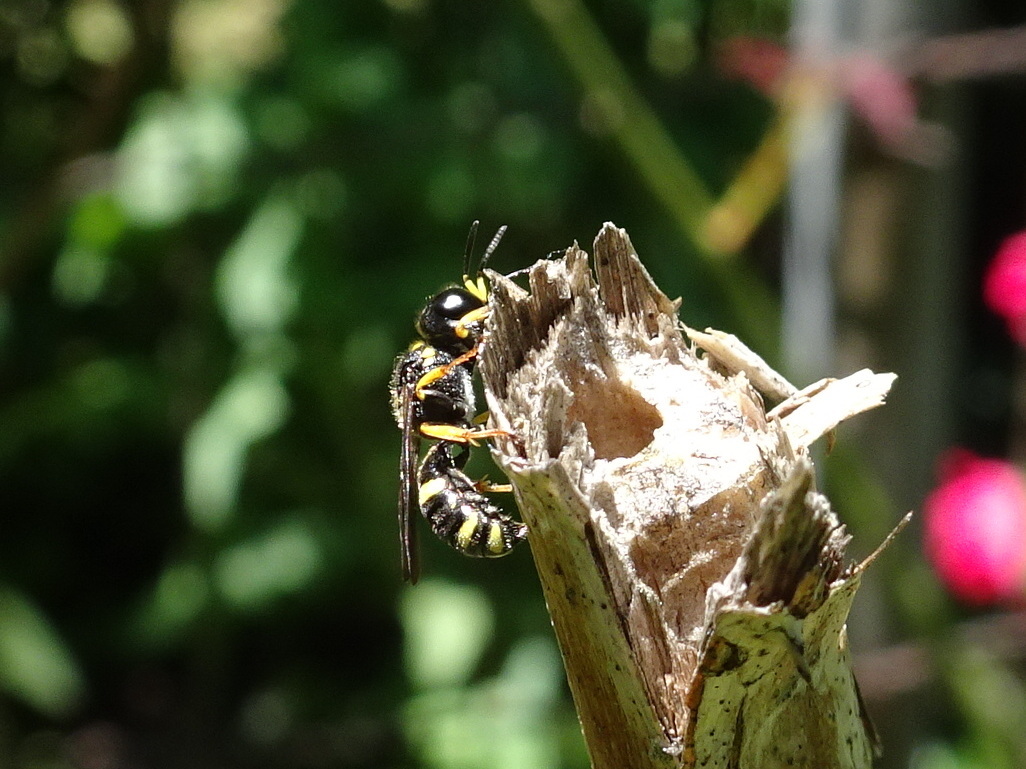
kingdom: Animalia
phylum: Arthropoda
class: Insecta
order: Hymenoptera
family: Crabronidae
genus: Ectemnius
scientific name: Ectemnius stirpicola
